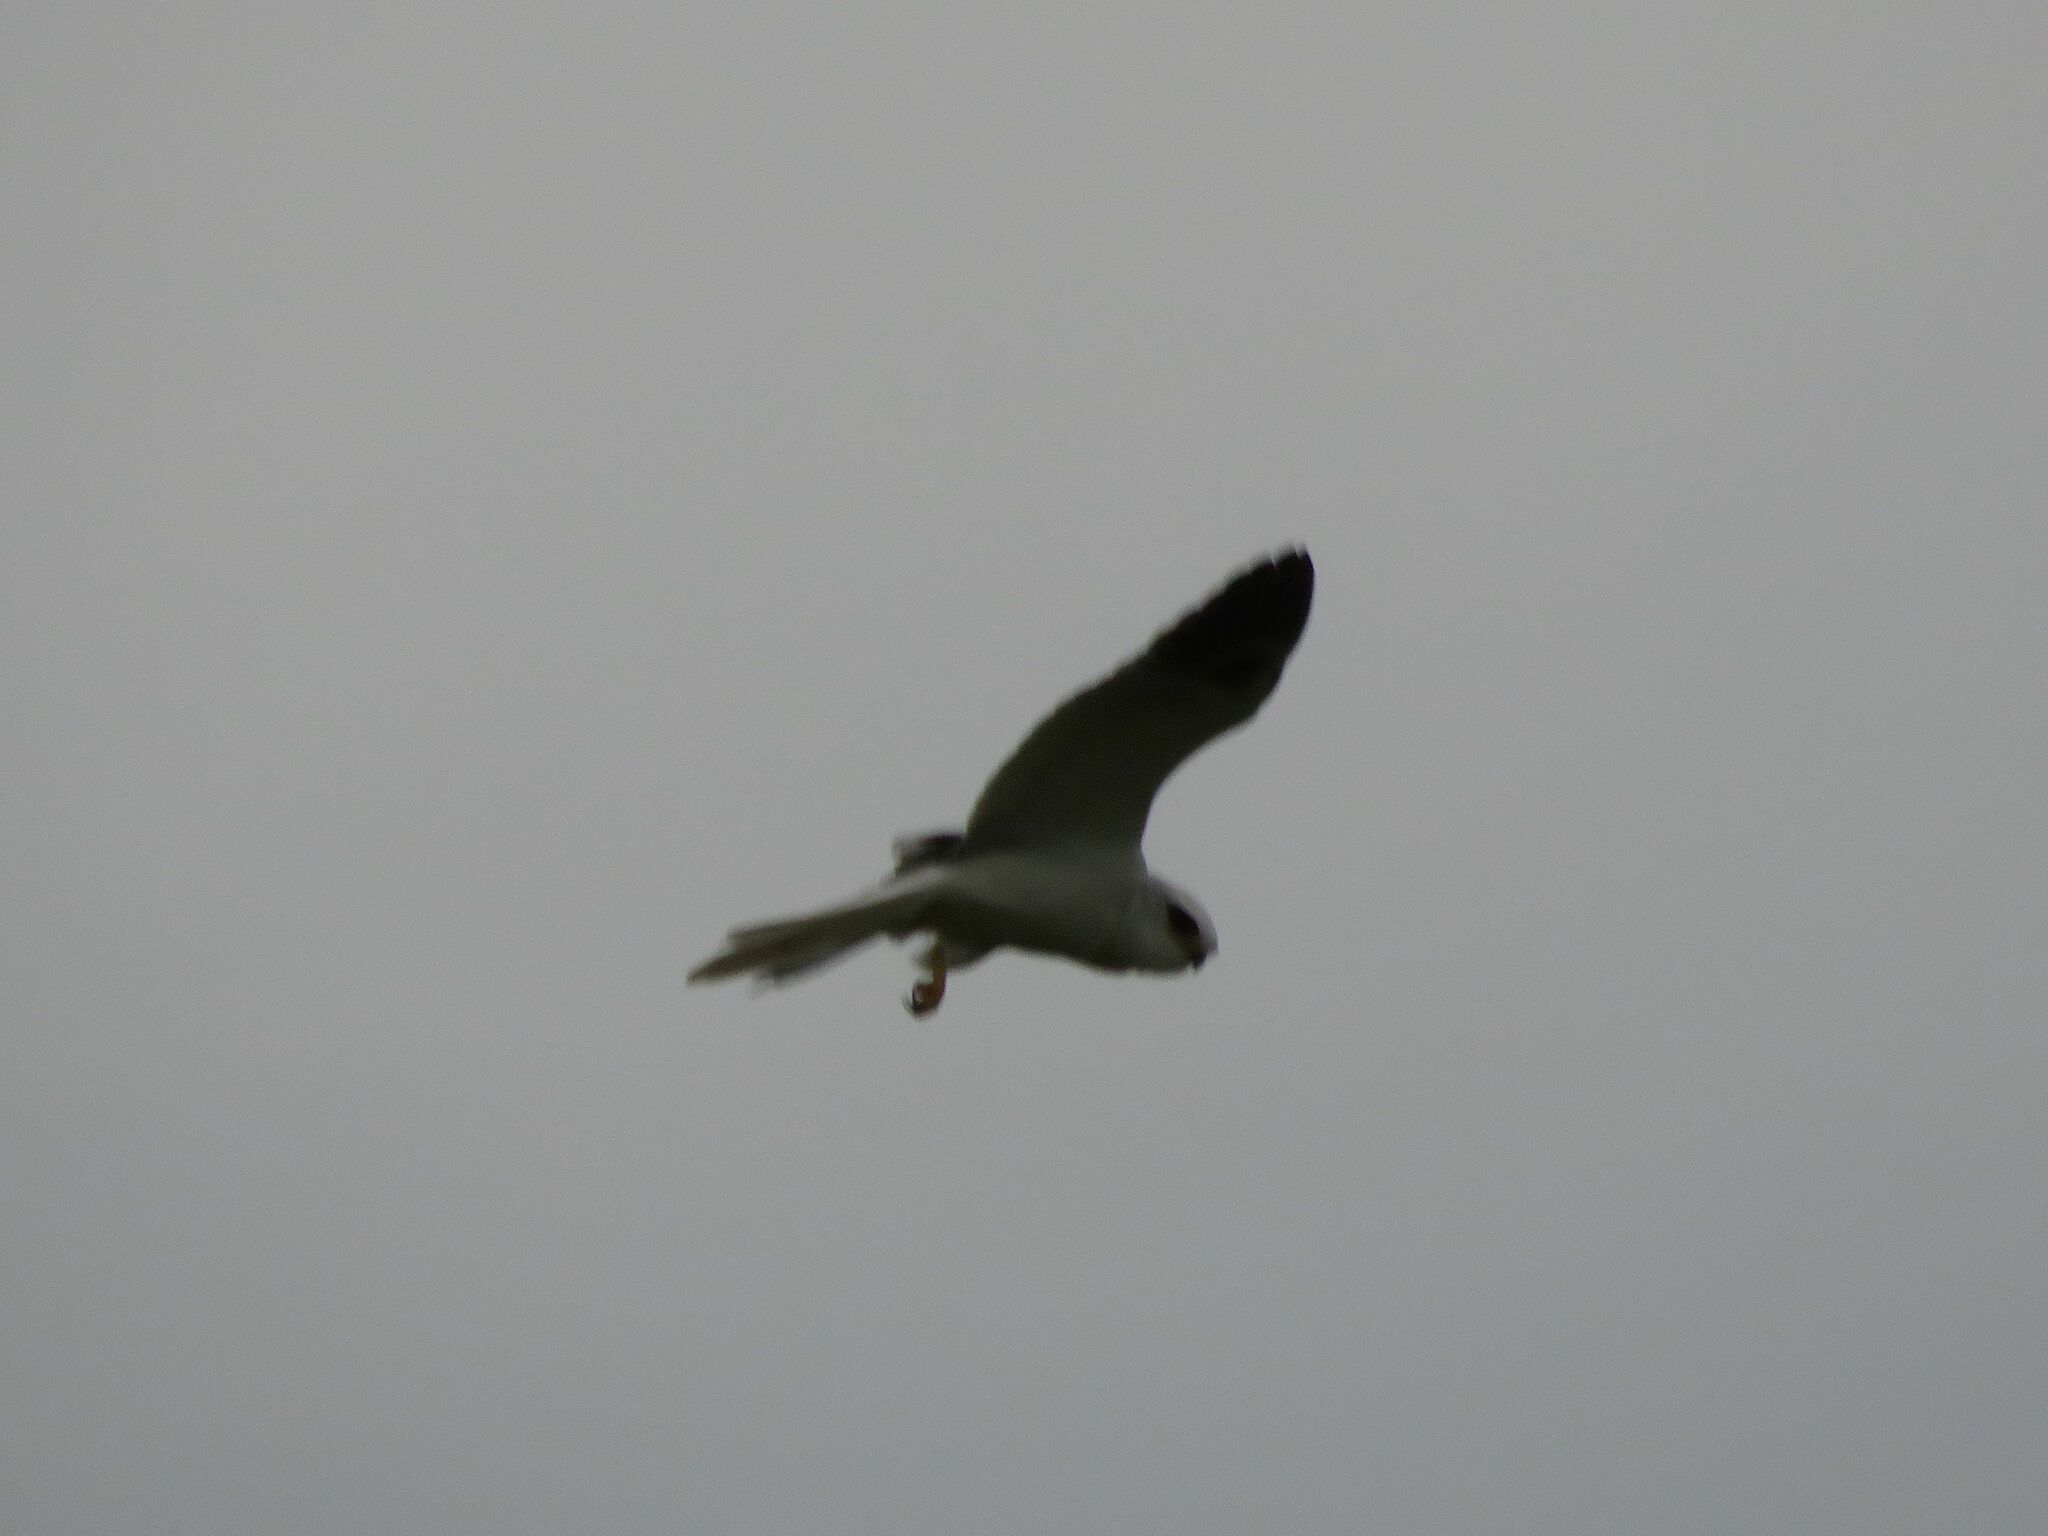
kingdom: Animalia
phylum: Chordata
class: Aves
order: Accipitriformes
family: Accipitridae
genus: Elanus
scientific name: Elanus leucurus
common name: White-tailed kite
